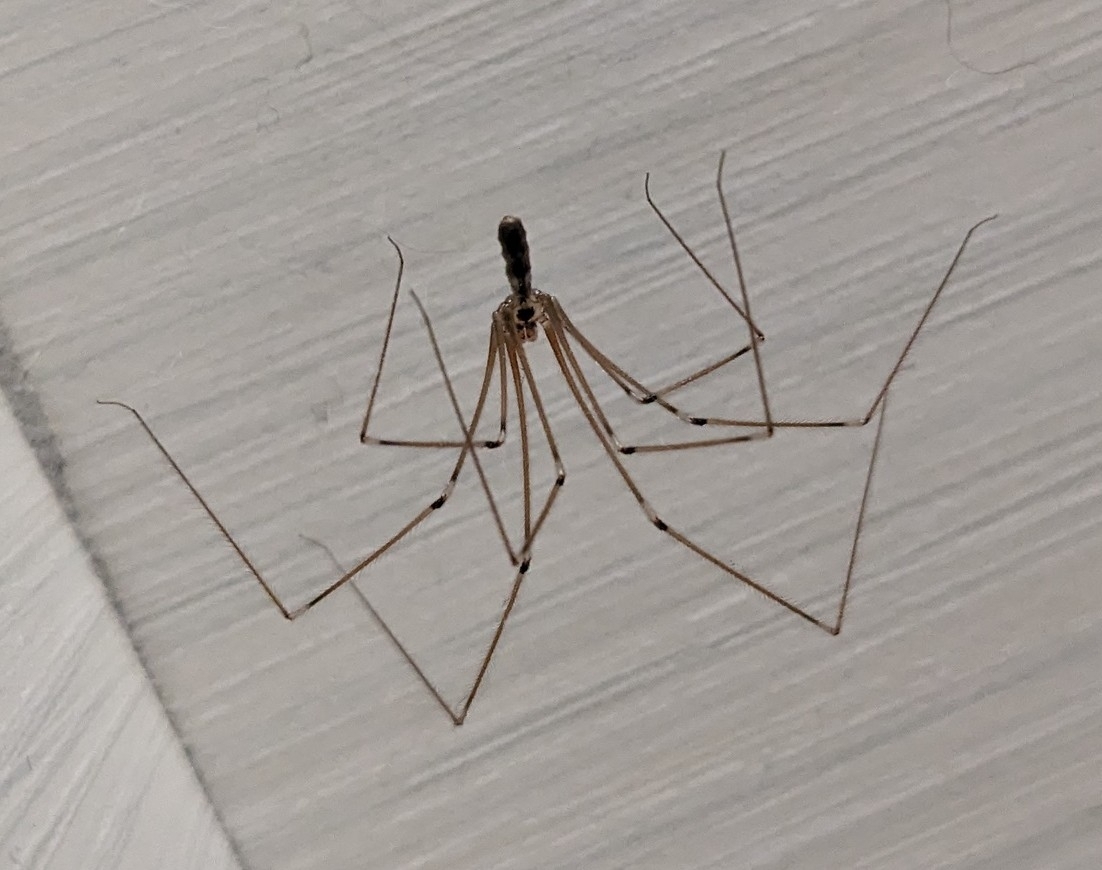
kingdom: Animalia
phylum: Arthropoda
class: Arachnida
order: Araneae
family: Pholcidae
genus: Pholcus
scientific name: Pholcus phalangioides
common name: Longbodied cellar spider
